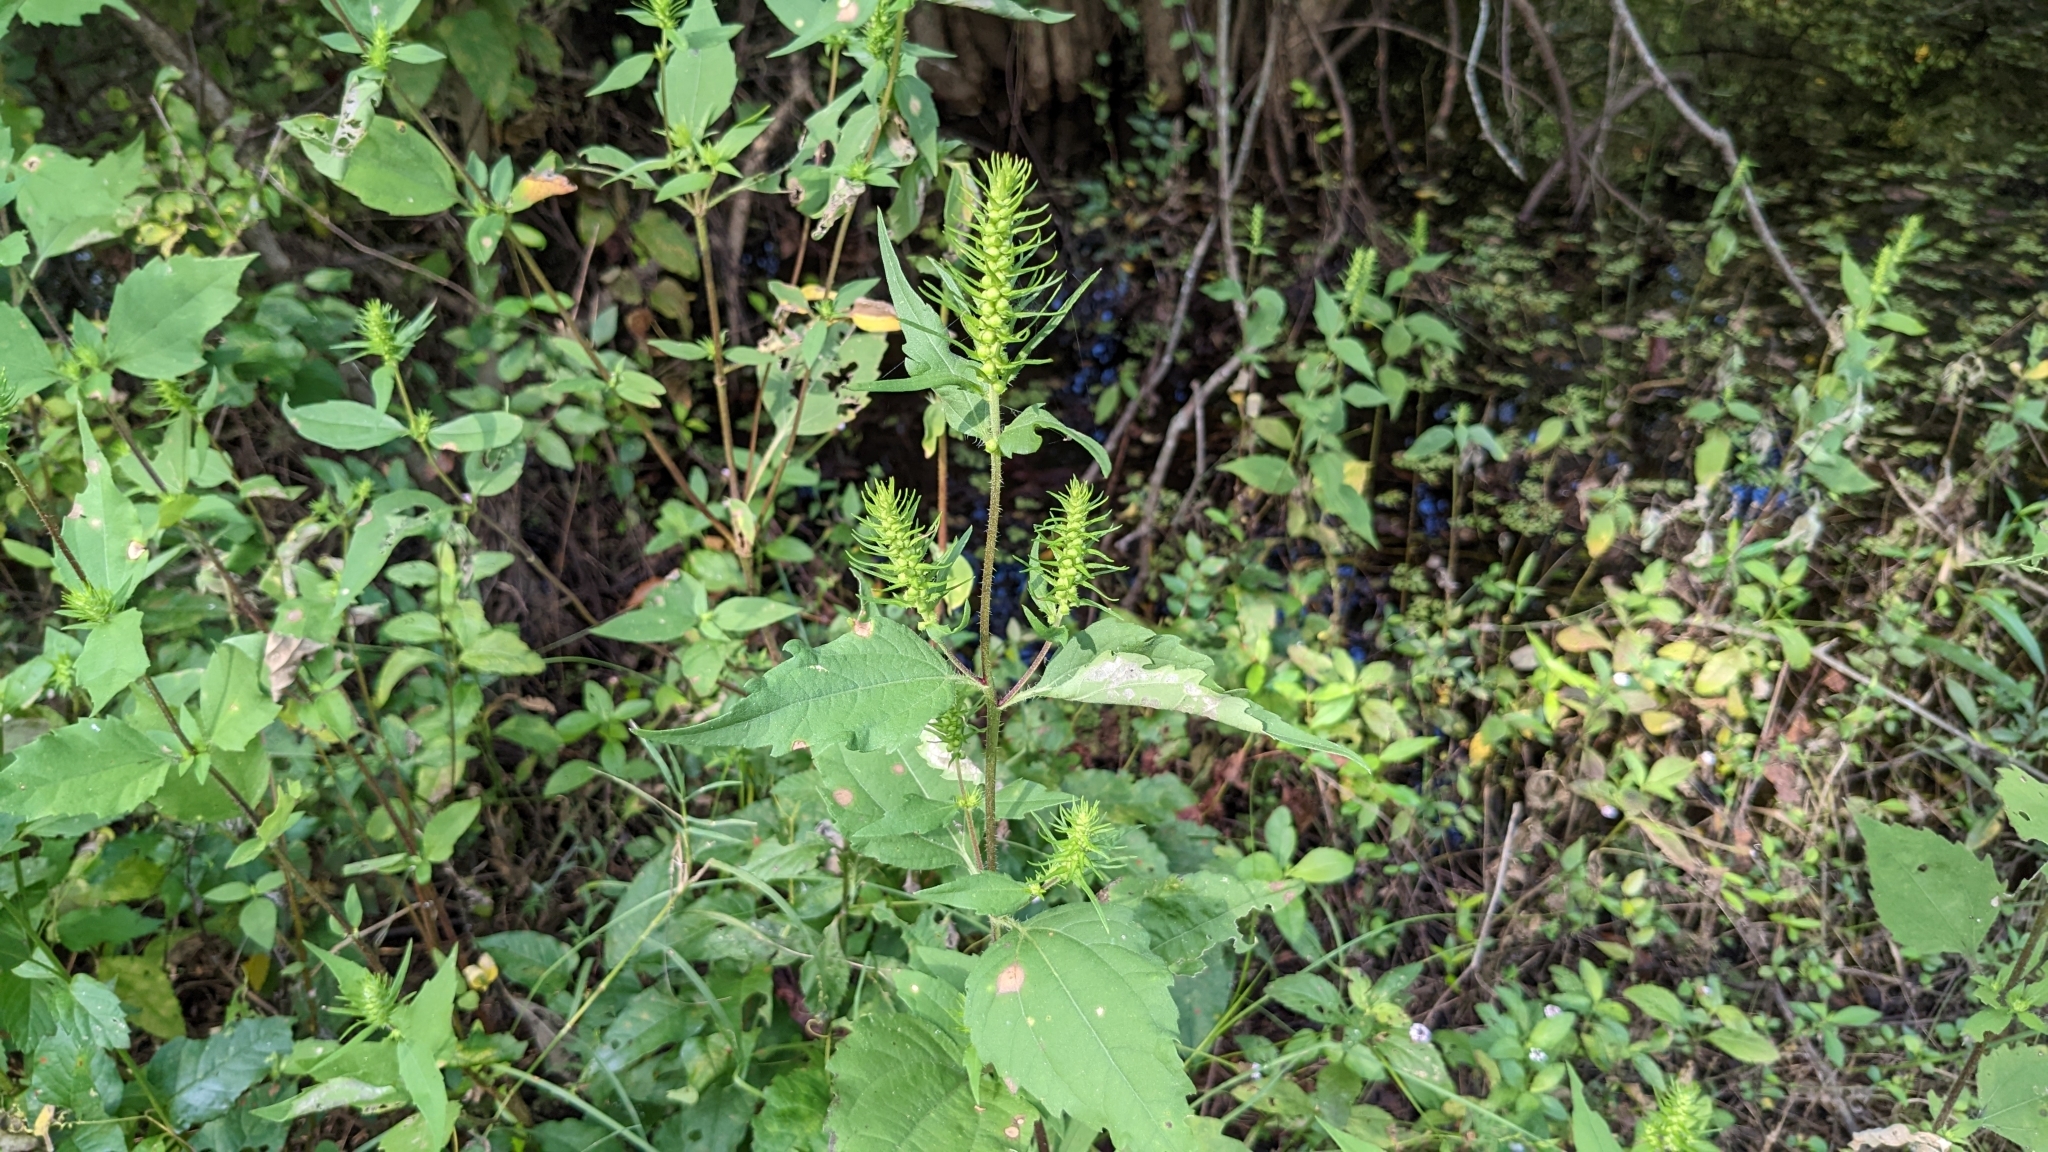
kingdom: Plantae
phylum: Tracheophyta
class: Magnoliopsida
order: Asterales
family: Asteraceae
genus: Iva
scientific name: Iva annua
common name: Marsh-elder
